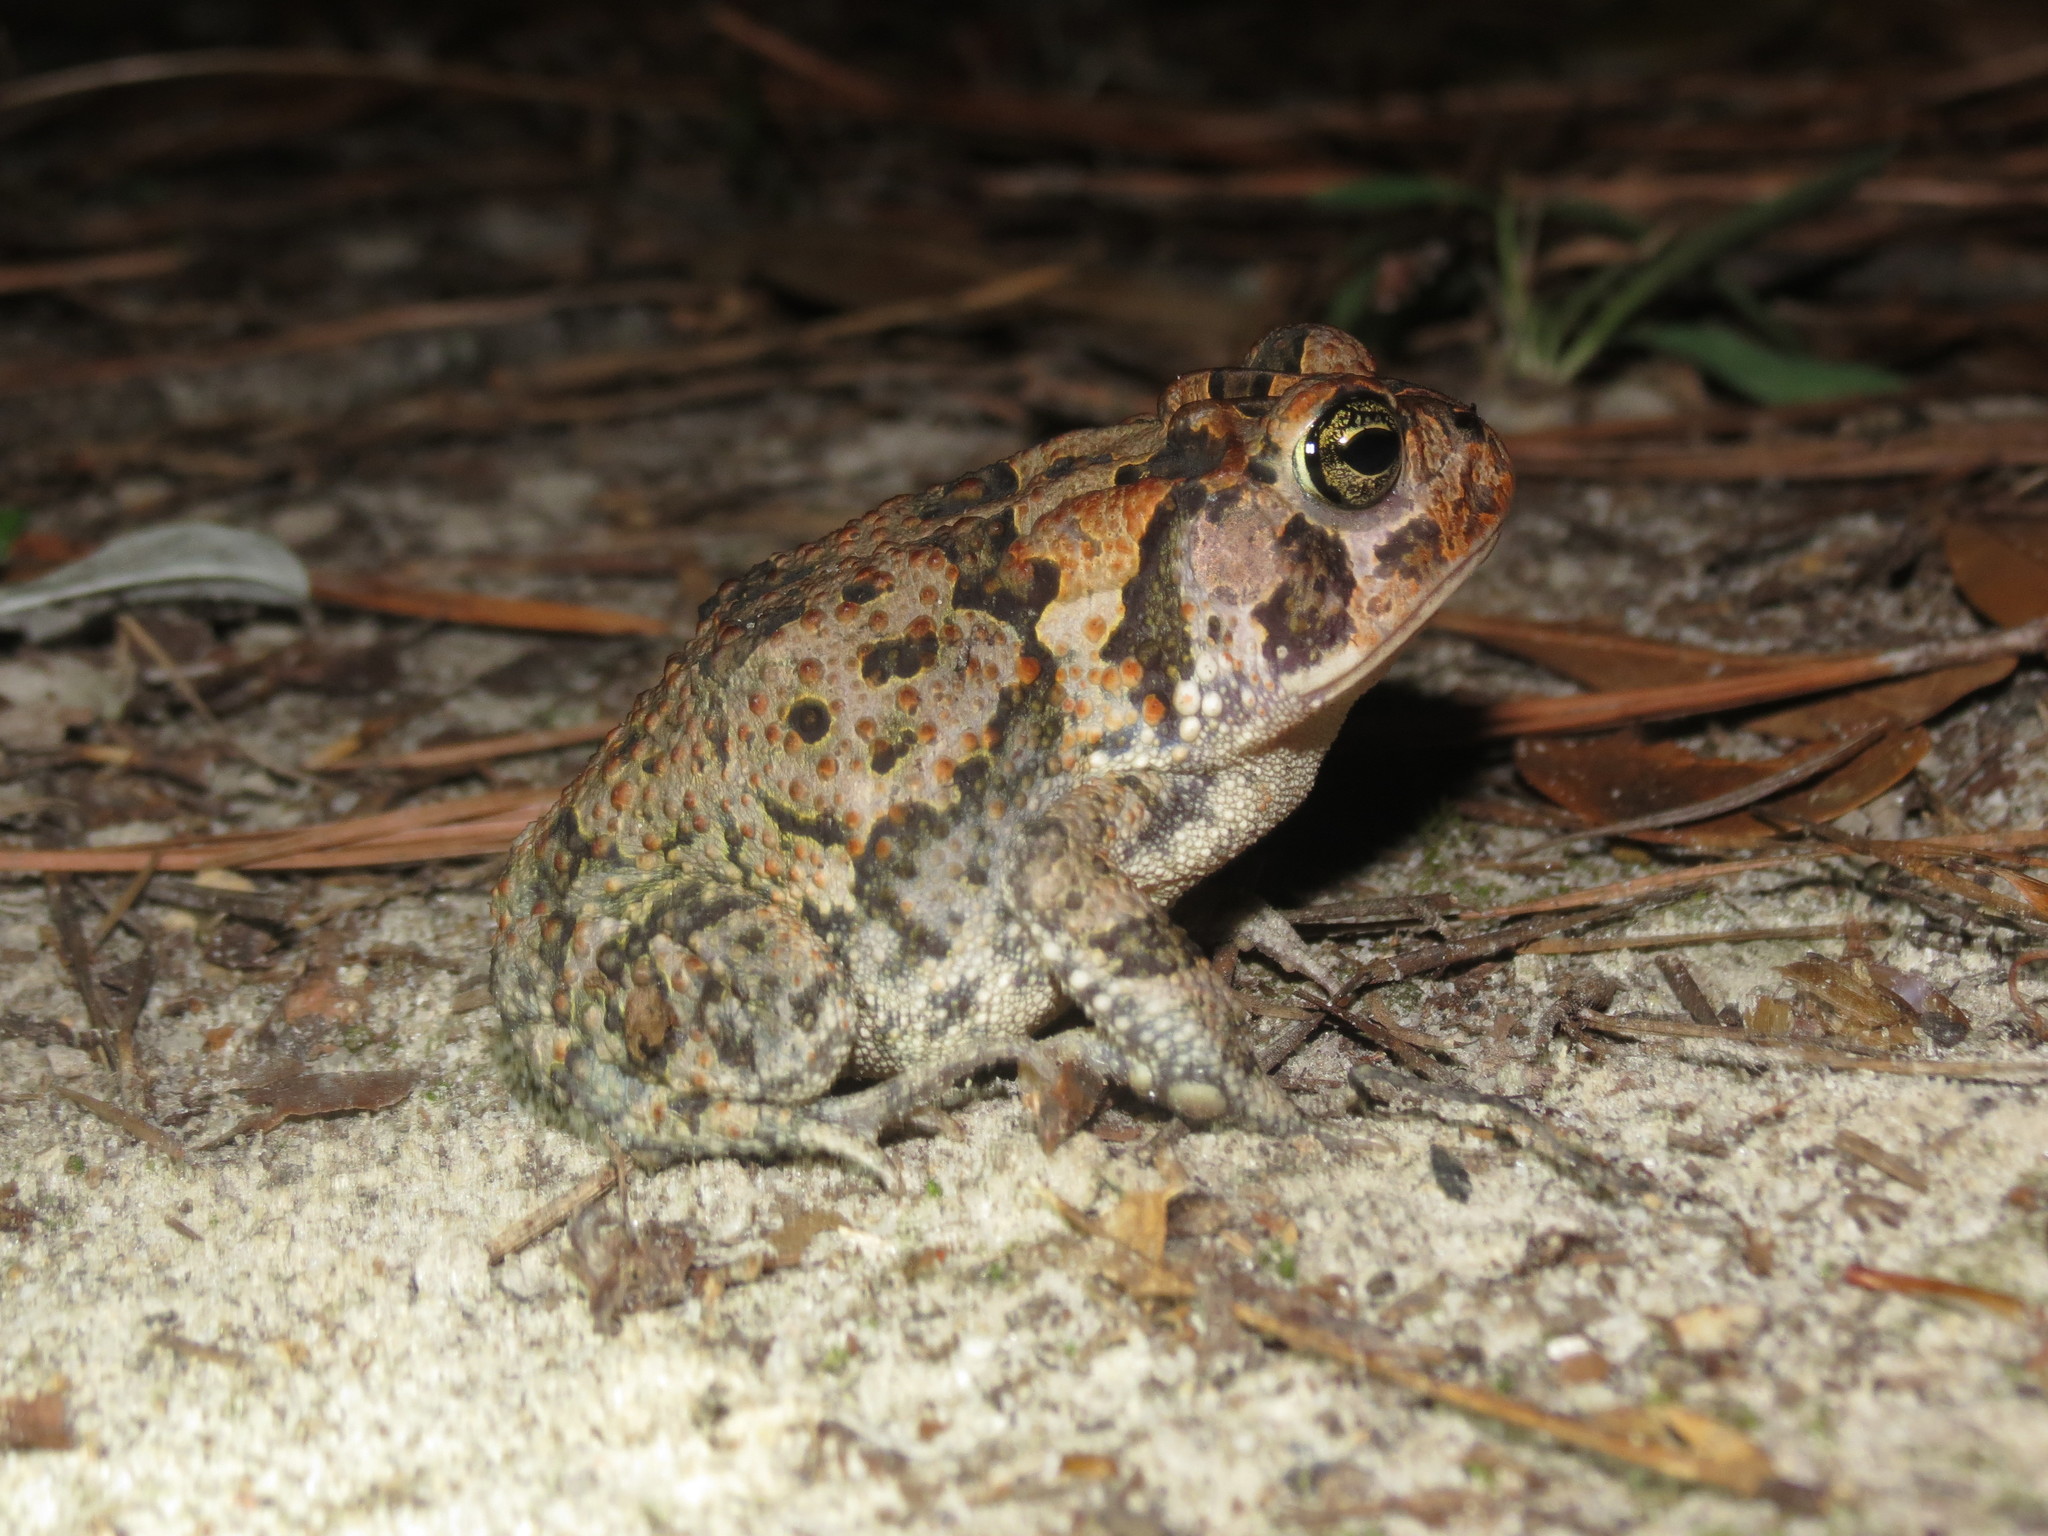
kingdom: Animalia
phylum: Chordata
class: Amphibia
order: Anura
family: Bufonidae
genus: Anaxyrus
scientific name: Anaxyrus terrestris
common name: Southern toad
